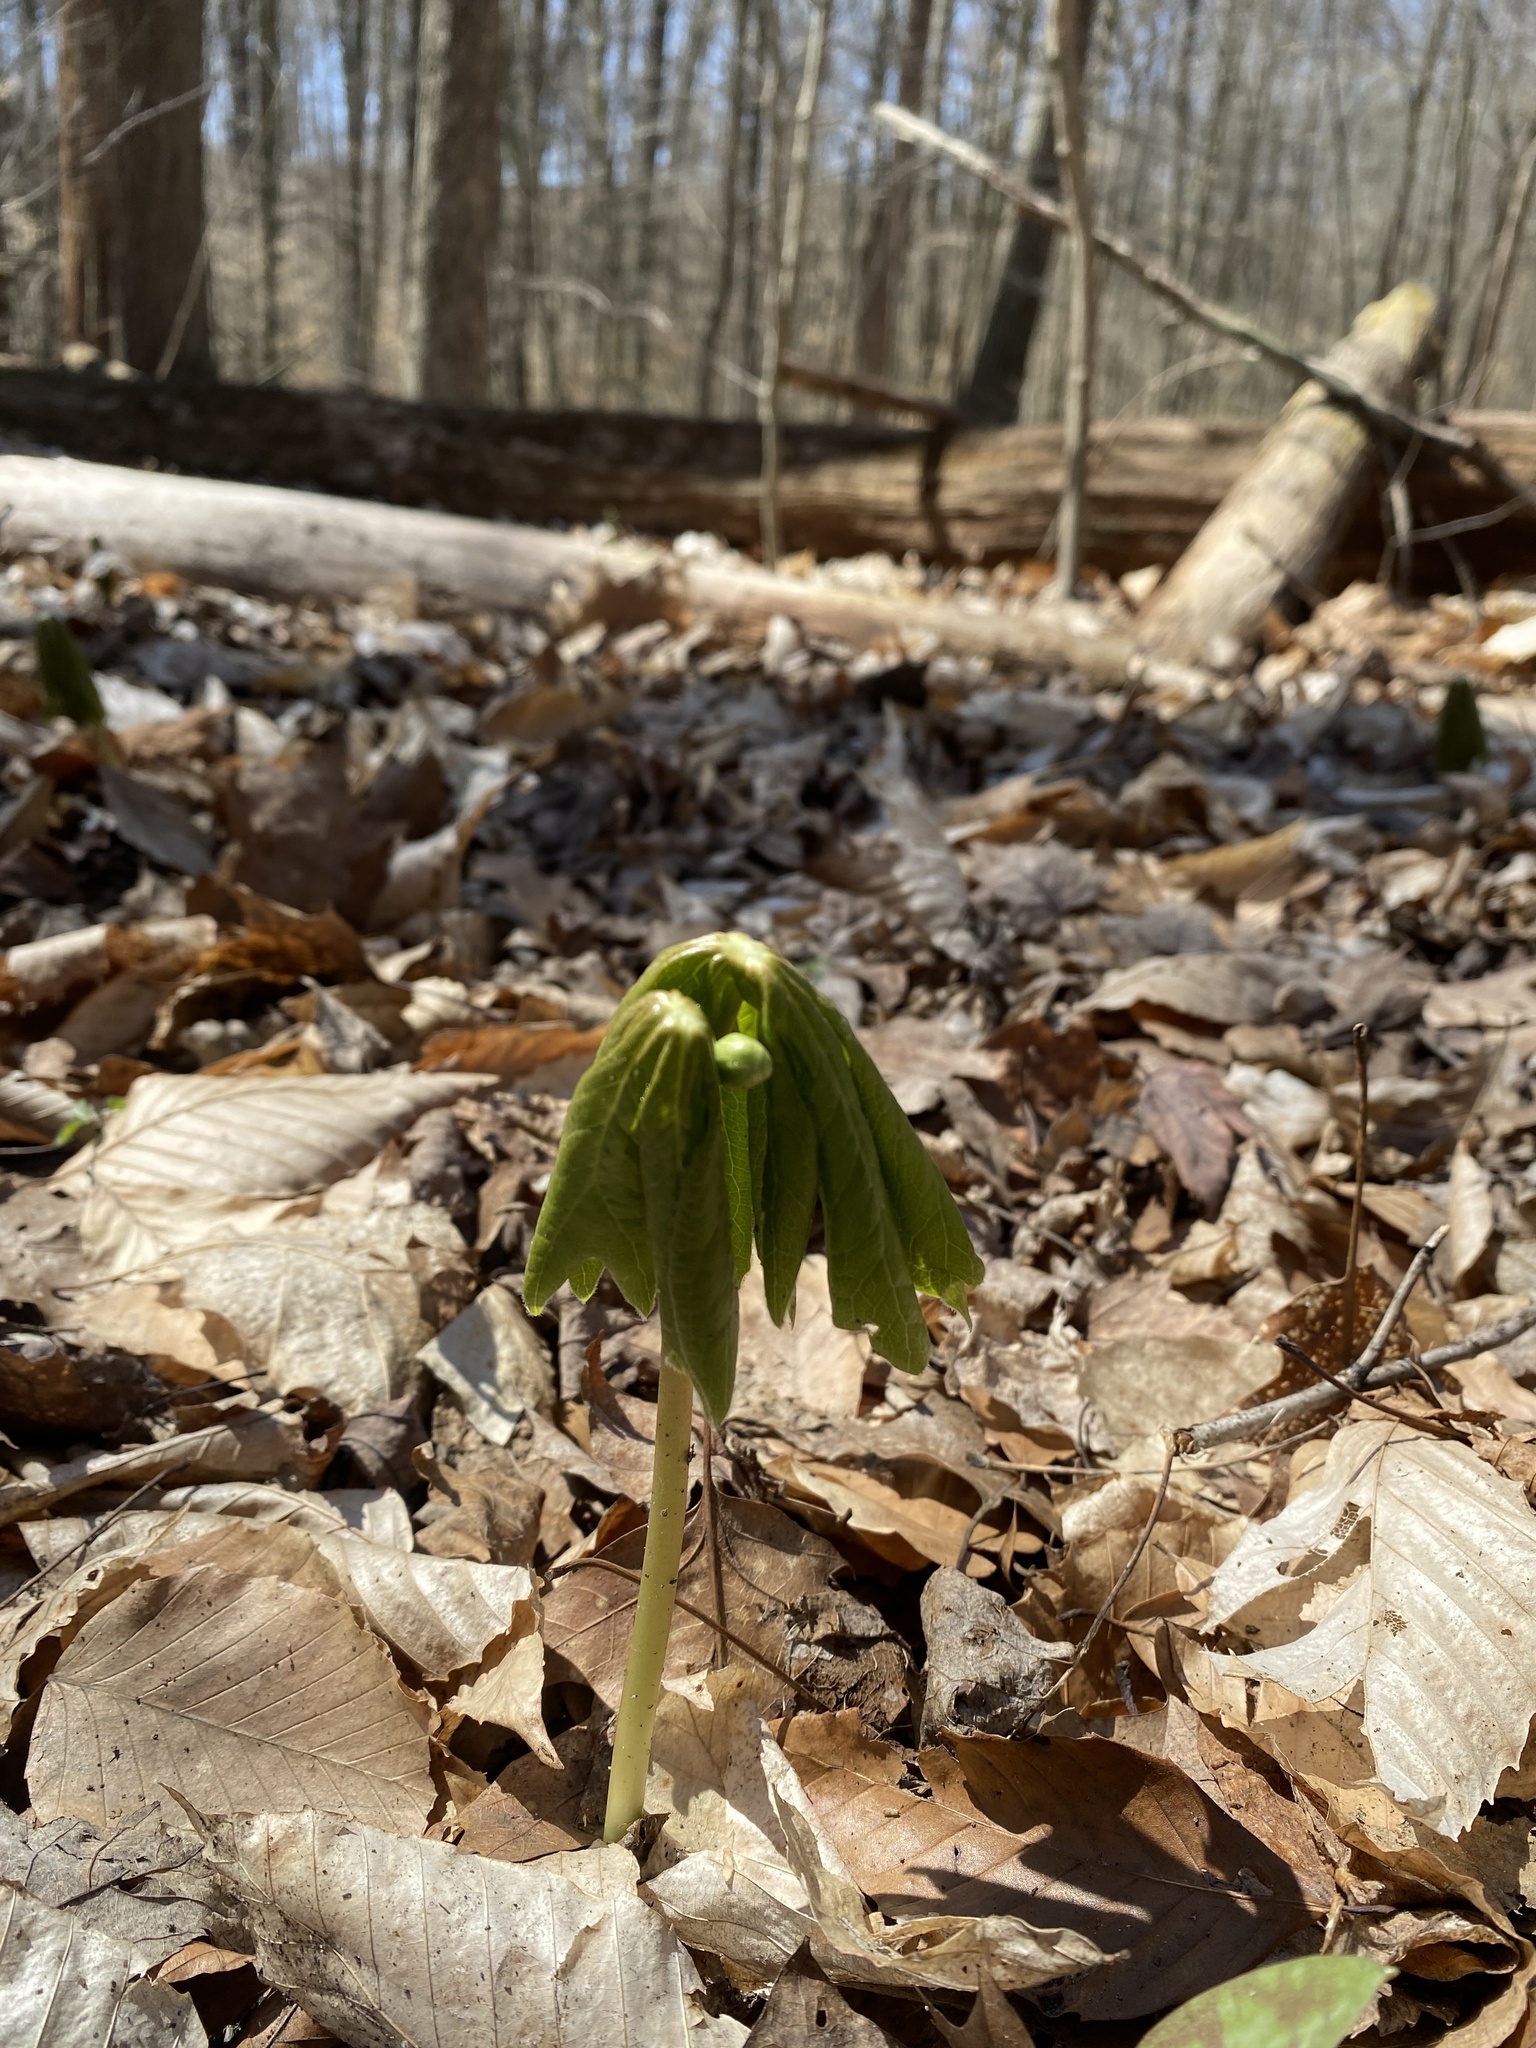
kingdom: Plantae
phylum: Tracheophyta
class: Magnoliopsida
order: Ranunculales
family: Berberidaceae
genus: Podophyllum
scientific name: Podophyllum peltatum
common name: Wild mandrake
